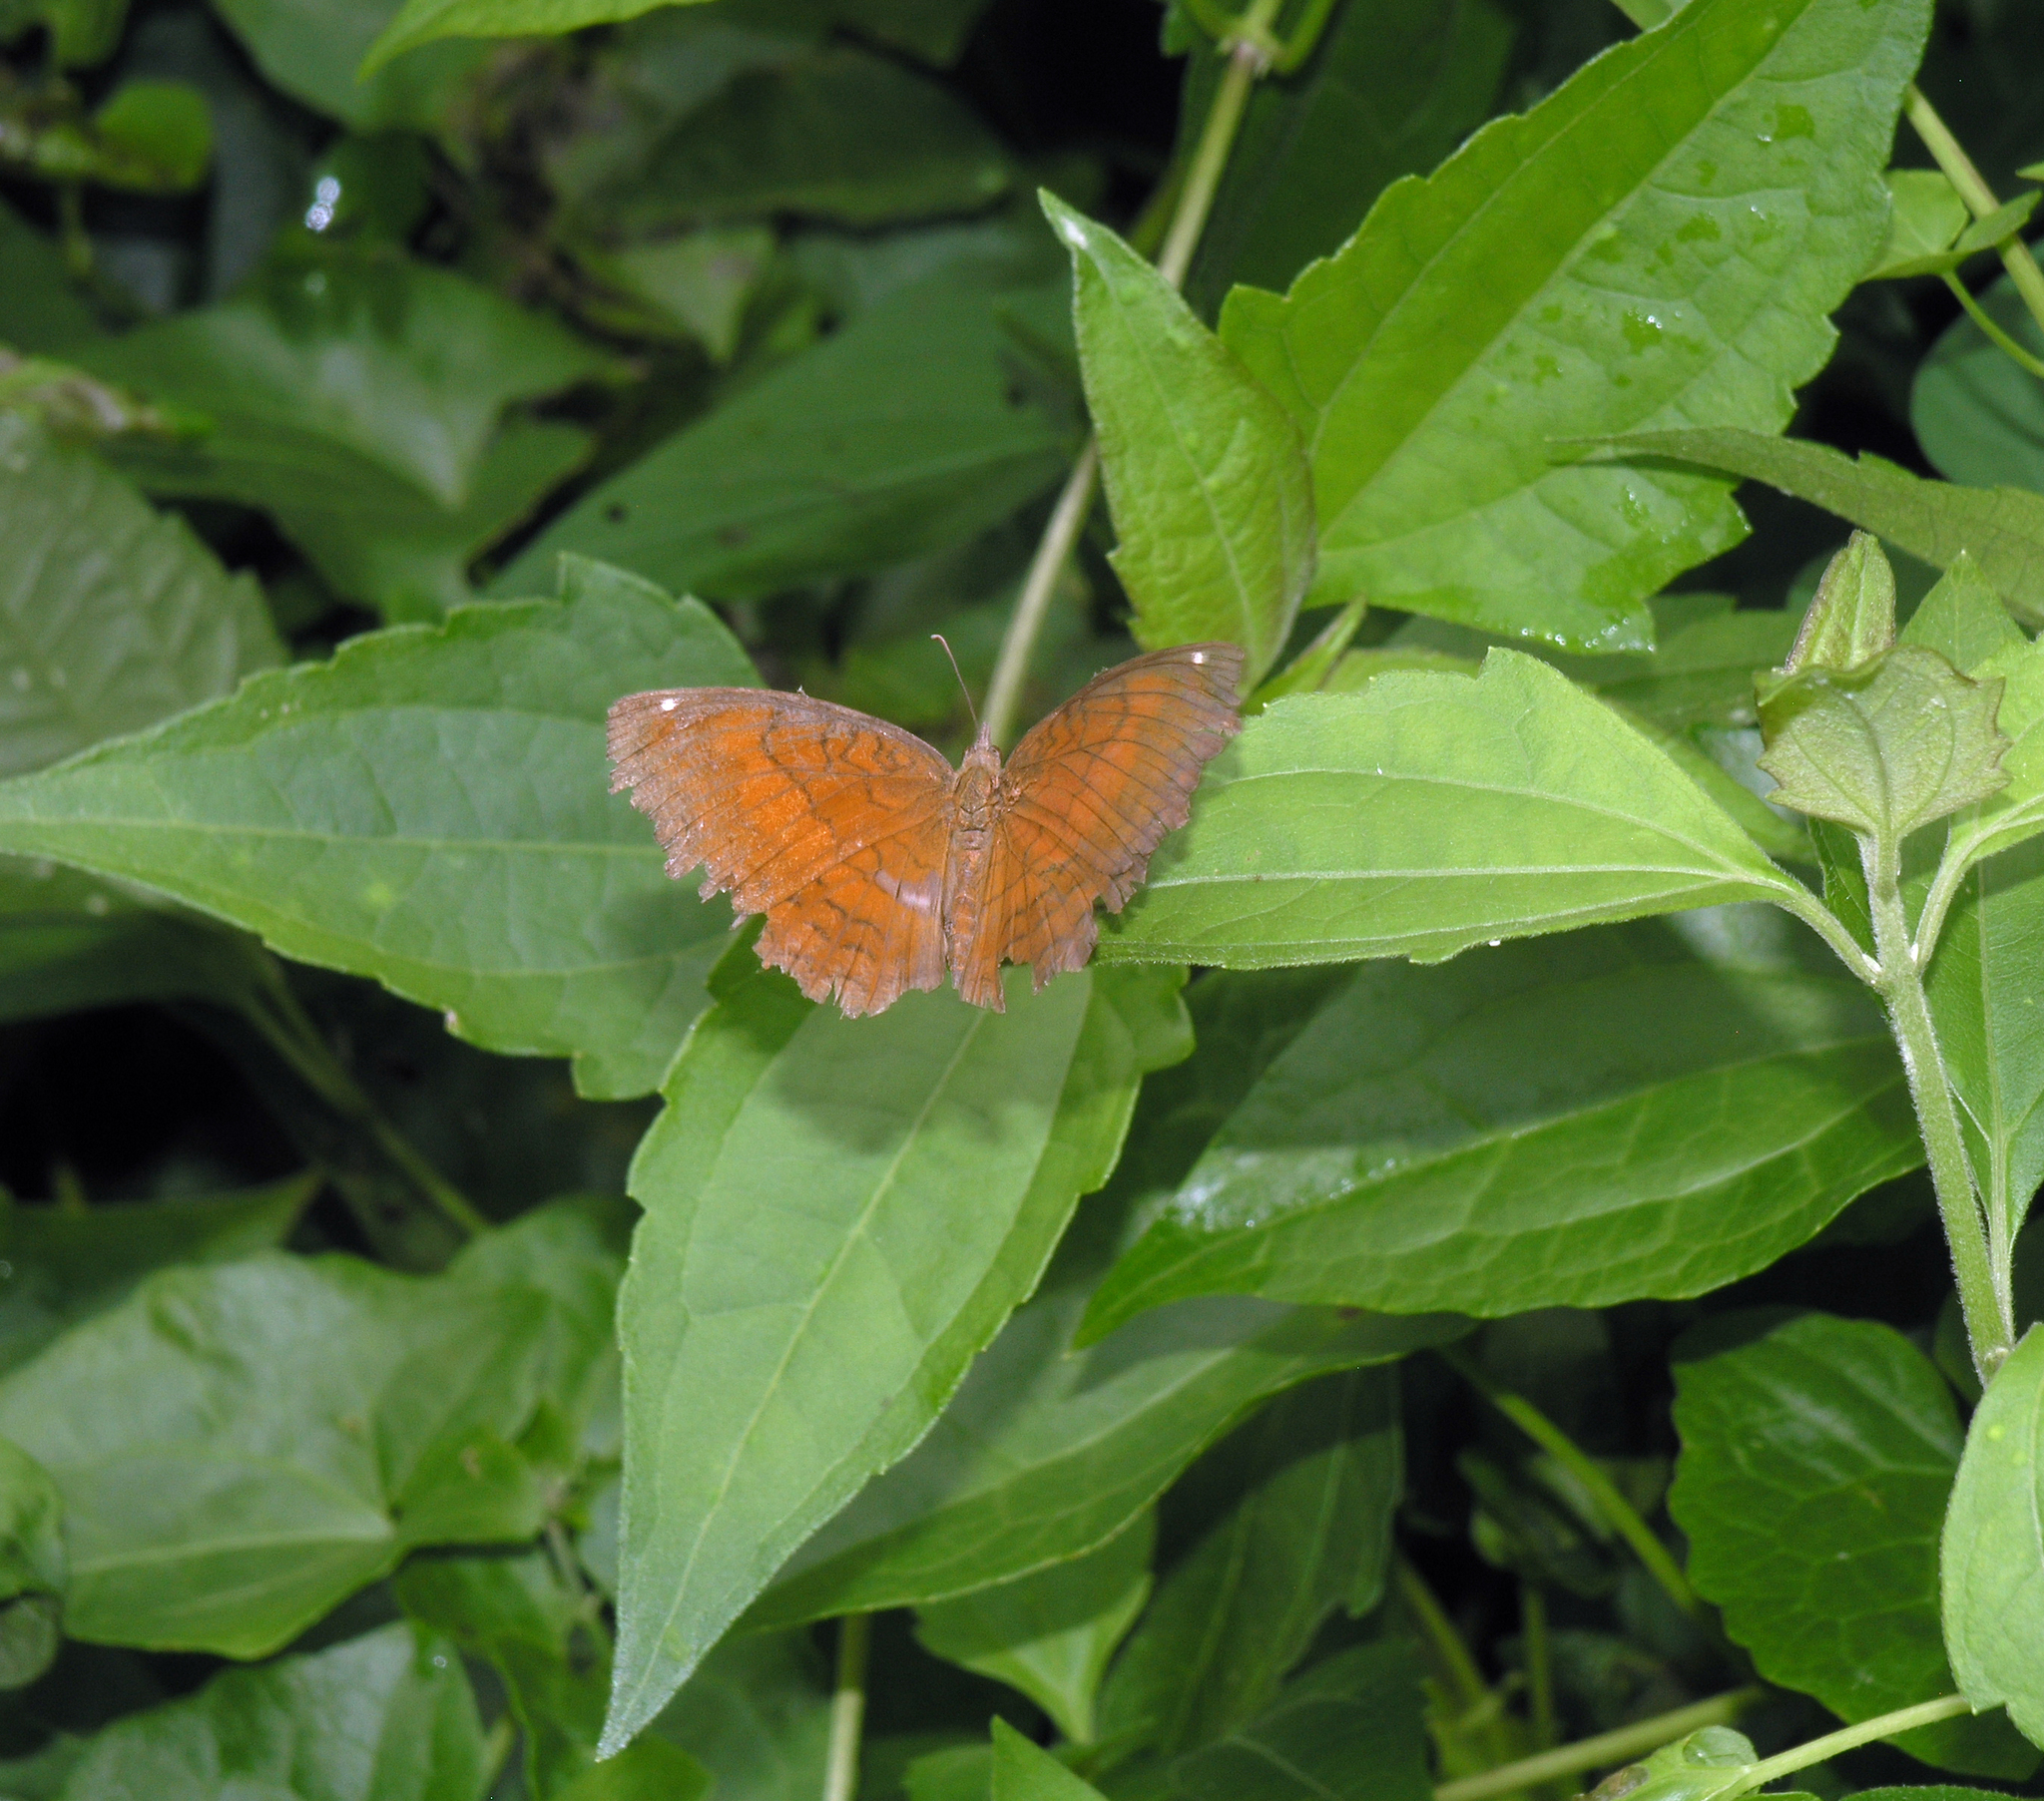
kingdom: Animalia
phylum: Arthropoda
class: Insecta
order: Lepidoptera
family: Nymphalidae
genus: Ariadne
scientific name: Ariadne ariadne
